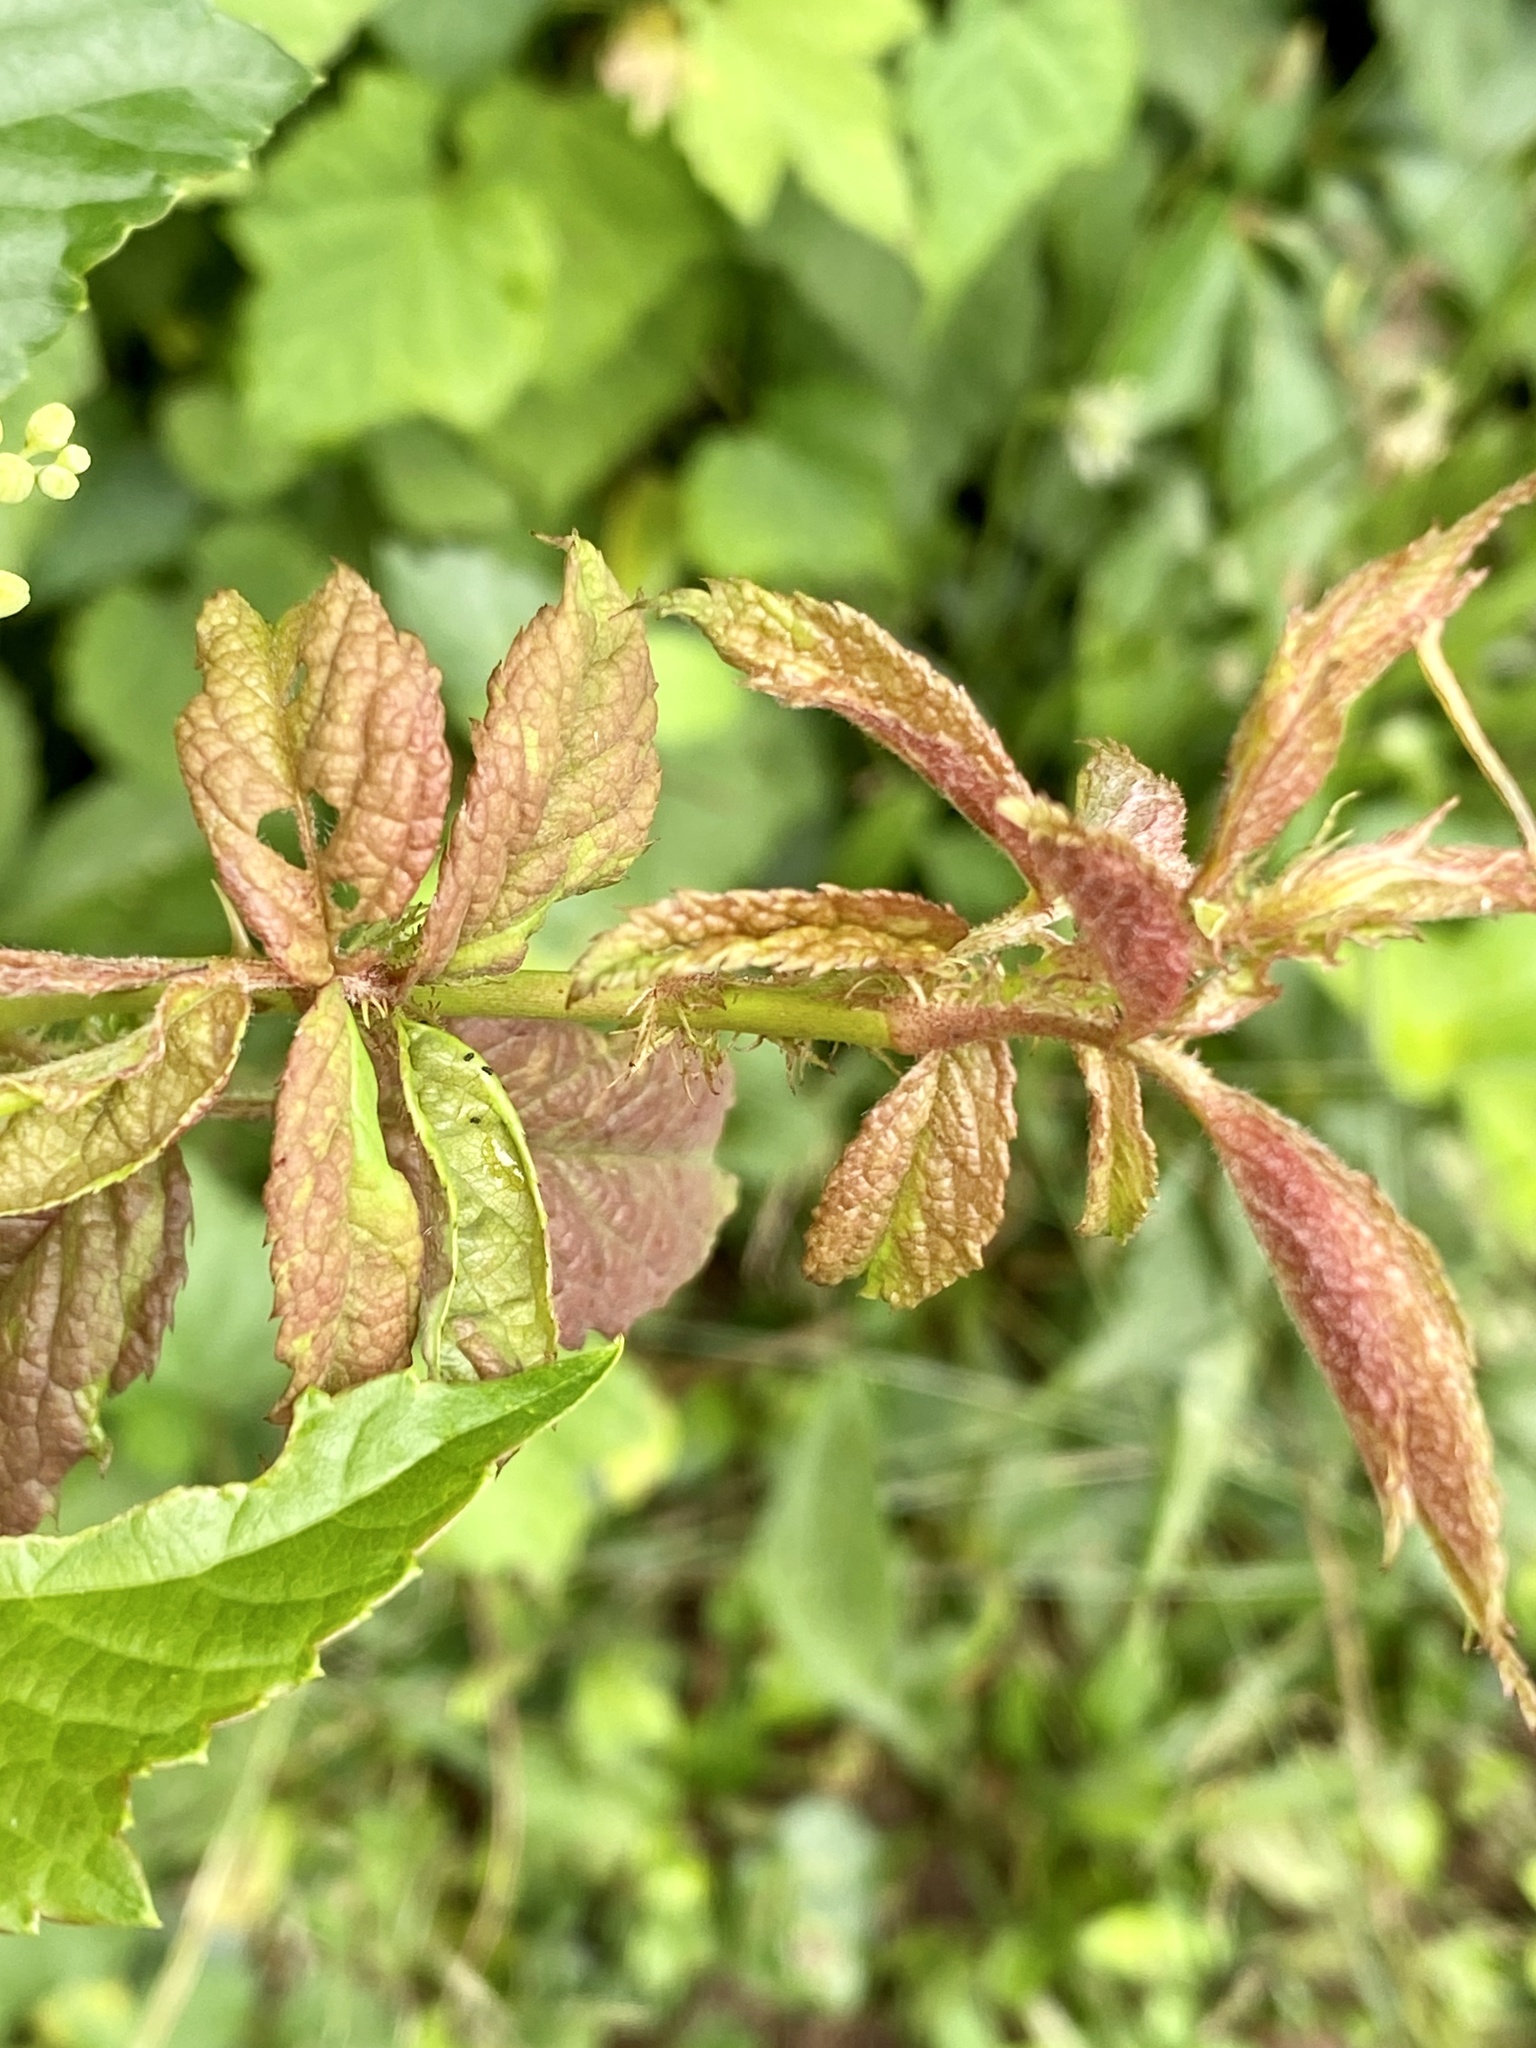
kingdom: Viruses
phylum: Negarnaviricota
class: Ellioviricetes
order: Bunyavirales
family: Fimoviridae
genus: Emaravirus
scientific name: Emaravirus rosae
